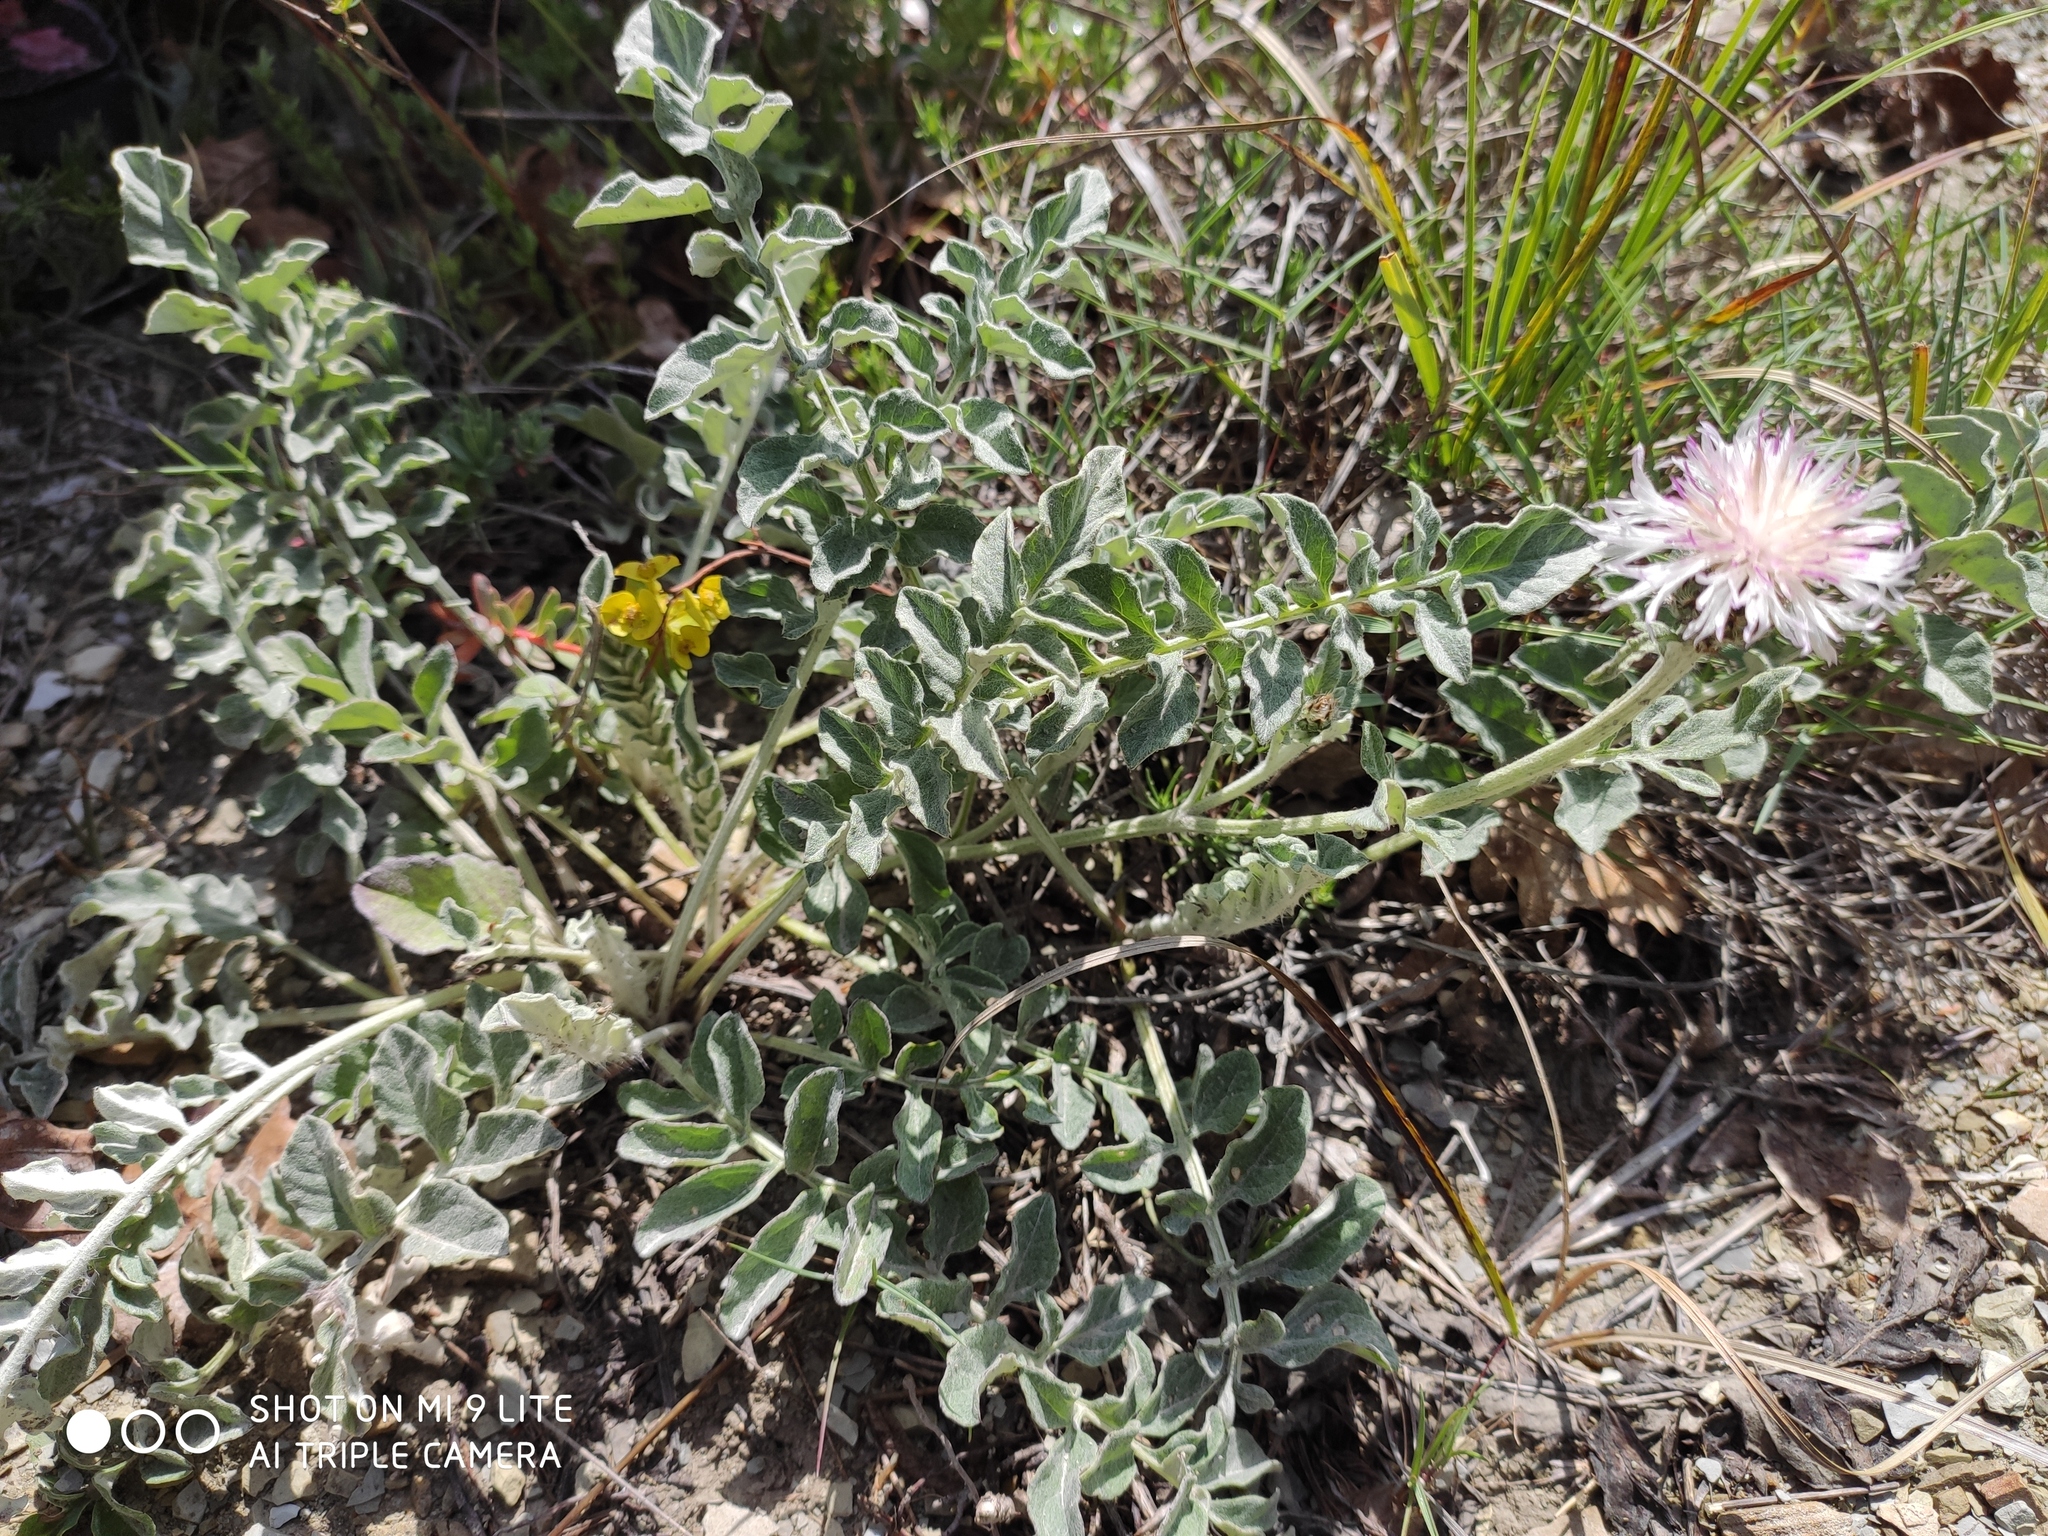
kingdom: Plantae
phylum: Tracheophyta
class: Magnoliopsida
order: Asterales
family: Asteraceae
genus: Psephellus
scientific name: Psephellus declinatus
